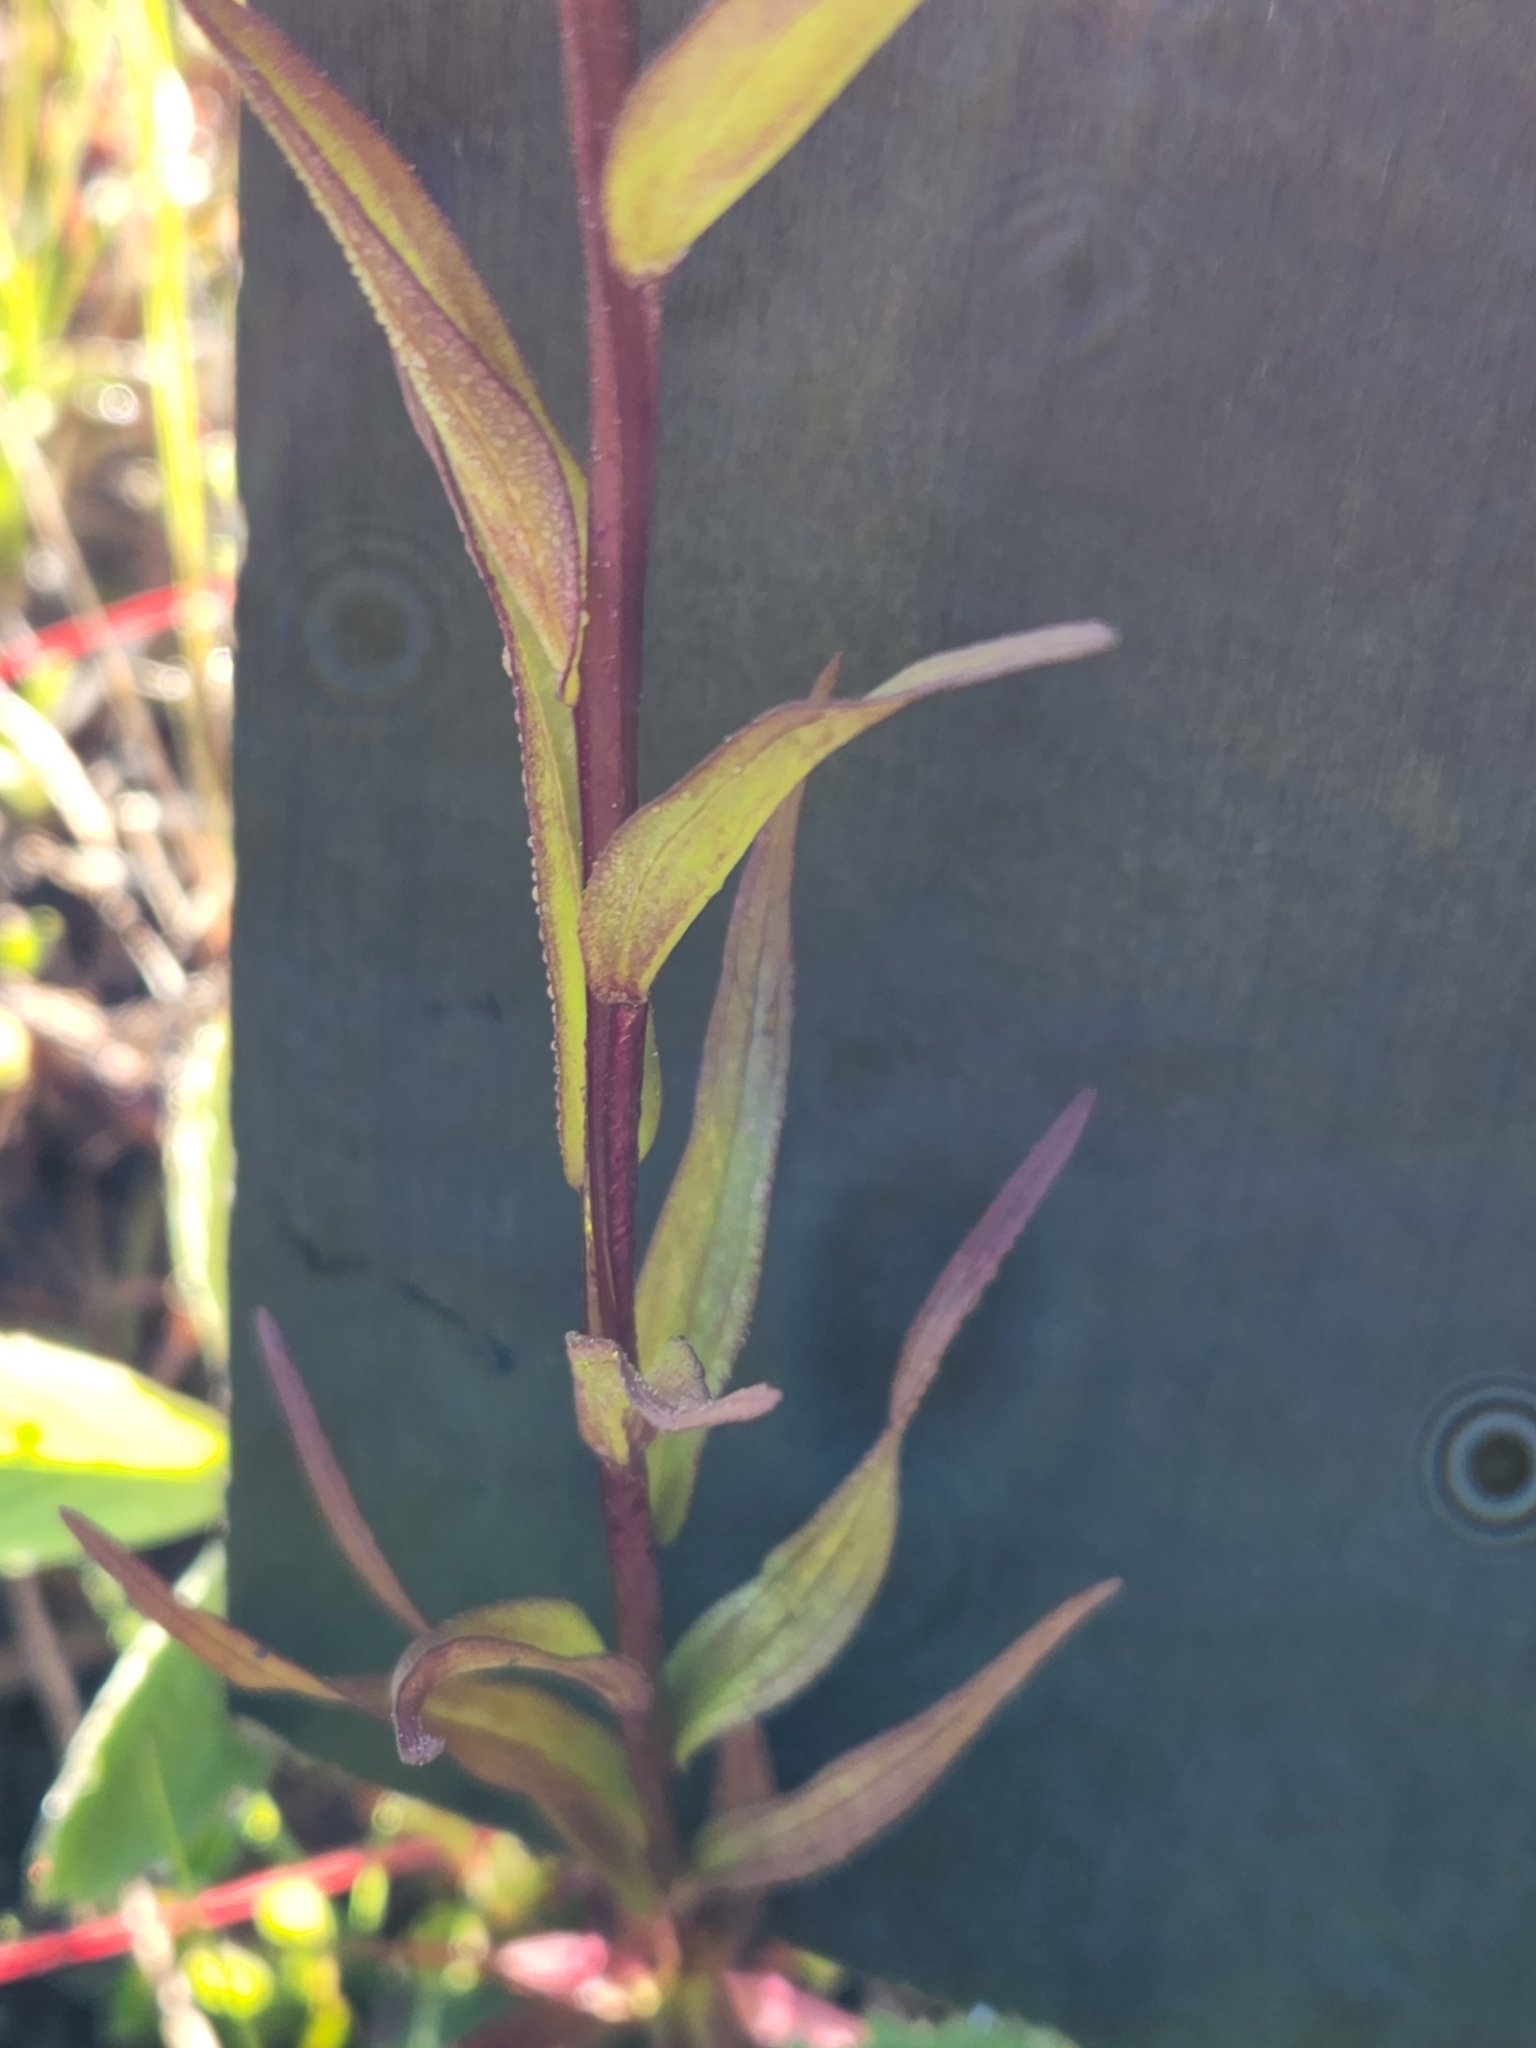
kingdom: Plantae
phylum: Tracheophyta
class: Magnoliopsida
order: Lamiales
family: Orobanchaceae
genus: Castilleja
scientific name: Castilleja miniata
